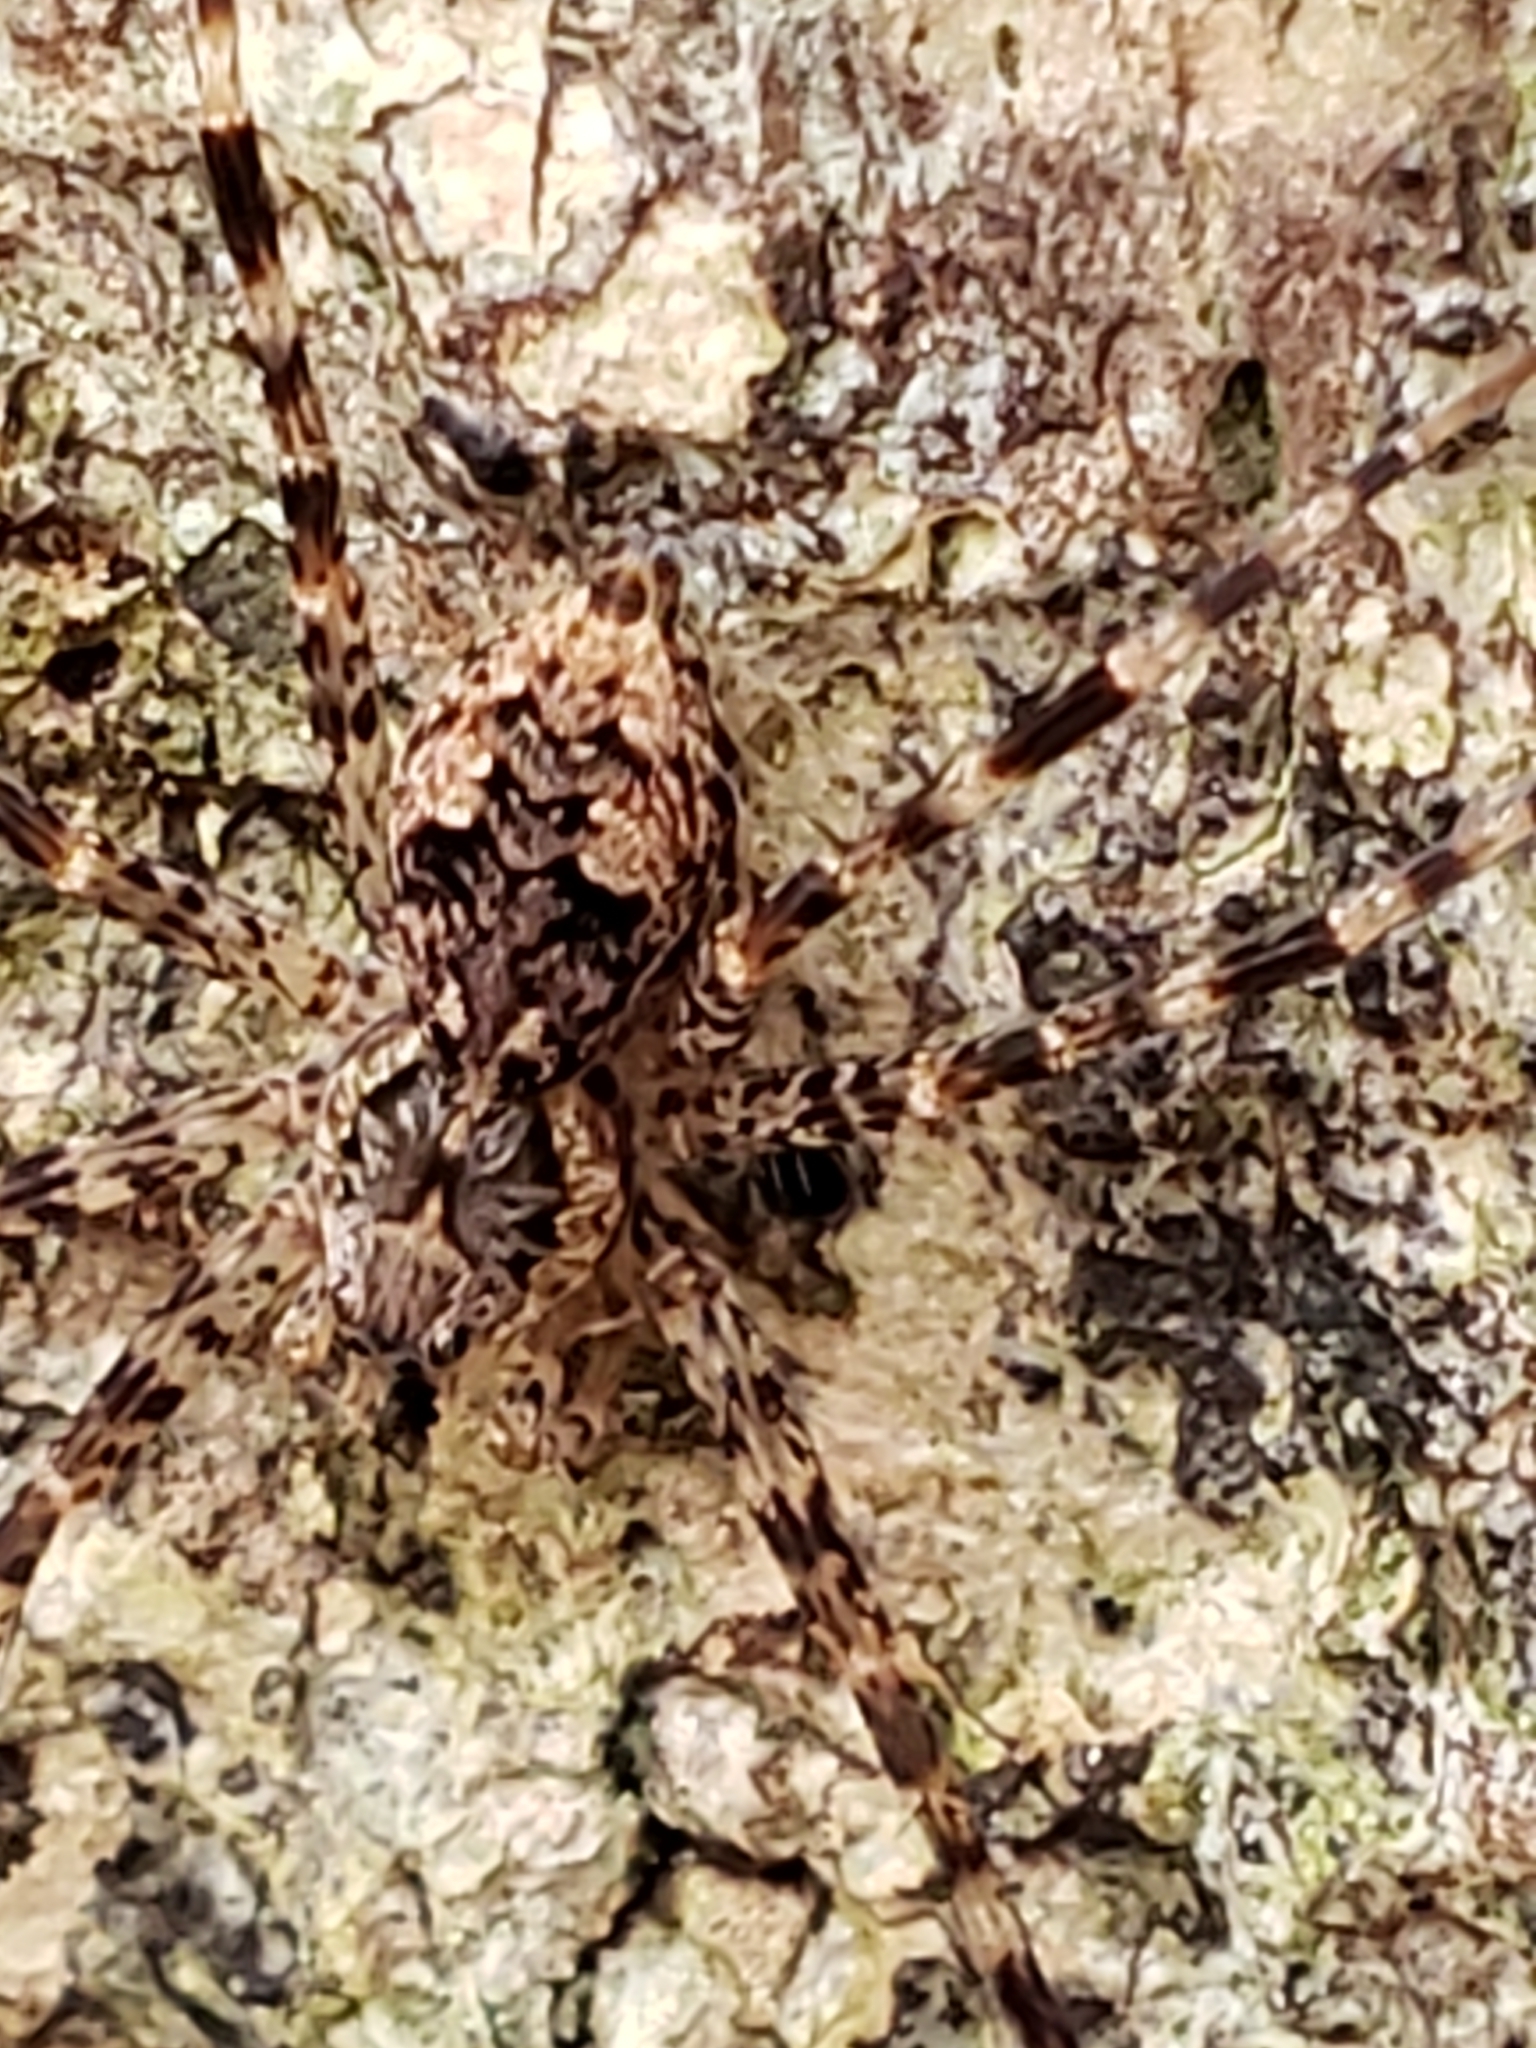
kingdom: Animalia
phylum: Arthropoda
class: Arachnida
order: Araneae
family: Pisauridae
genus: Dolomedes
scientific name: Dolomedes tenebrosus
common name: Dark fishing spider
